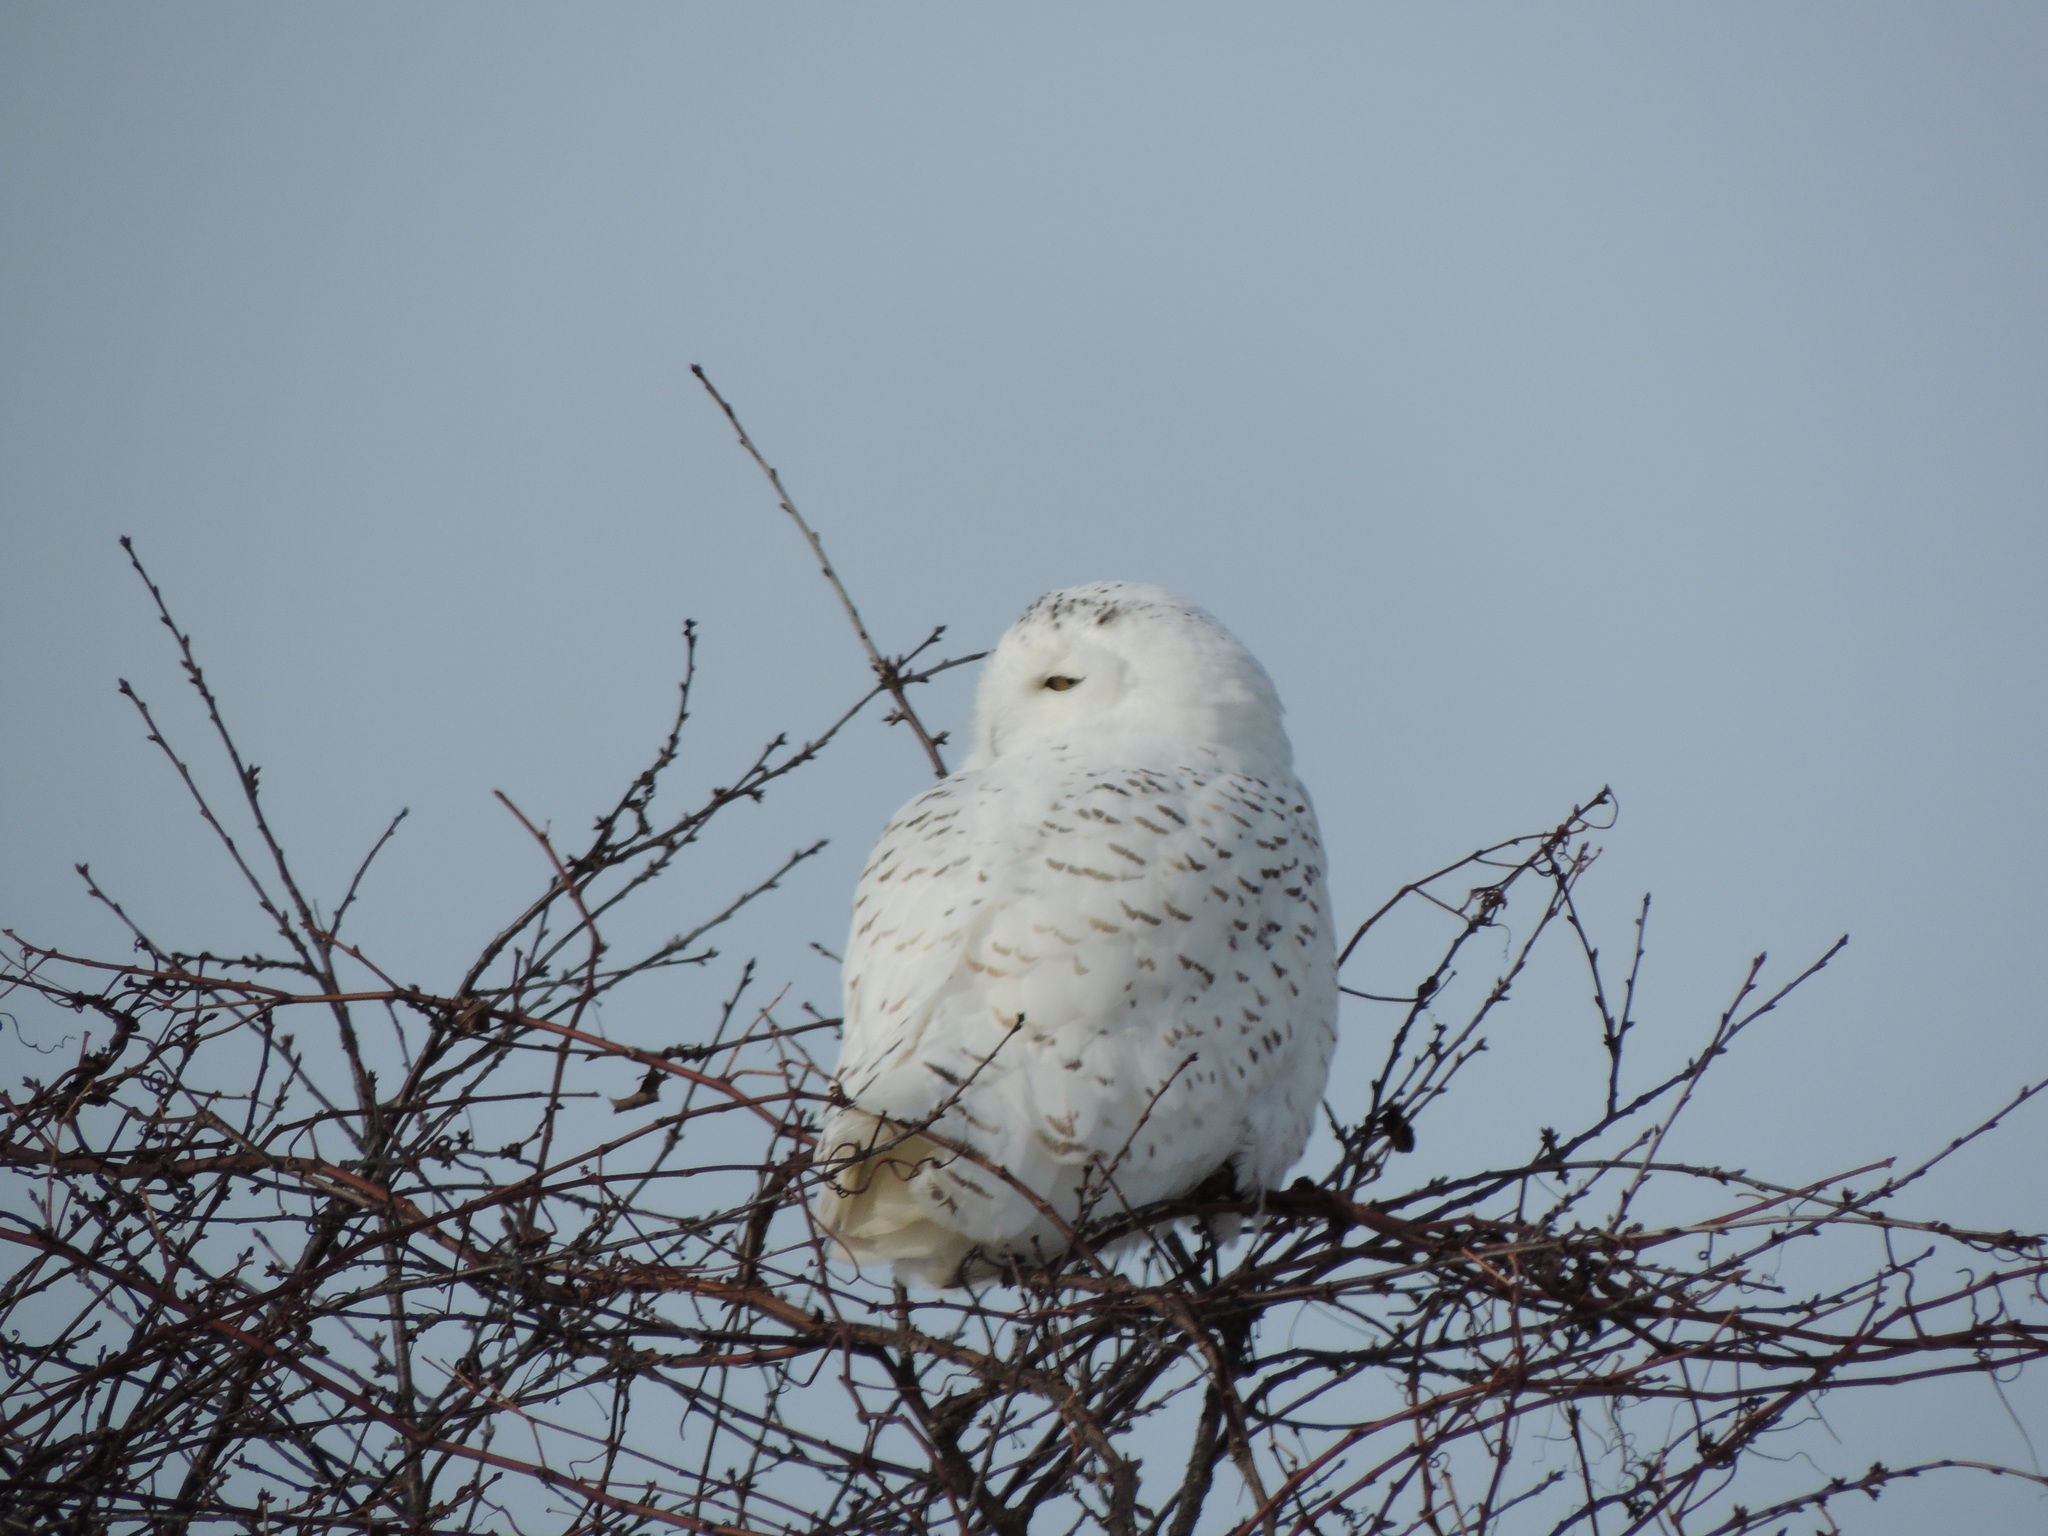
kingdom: Animalia
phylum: Chordata
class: Aves
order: Strigiformes
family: Strigidae
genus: Bubo
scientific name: Bubo scandiacus
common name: Snowy owl
